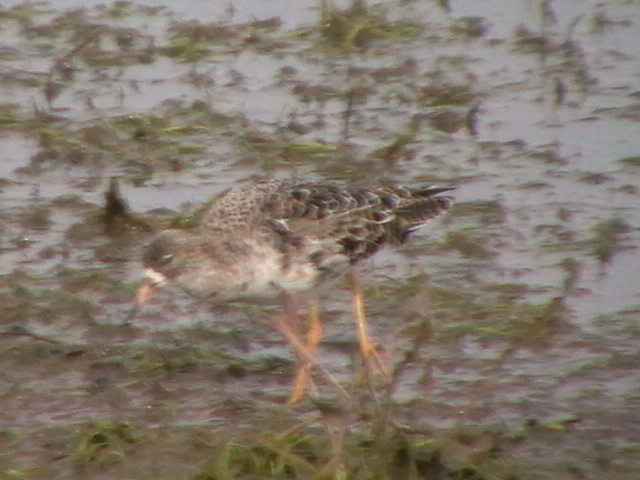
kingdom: Animalia
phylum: Chordata
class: Aves
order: Charadriiformes
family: Scolopacidae
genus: Calidris
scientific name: Calidris pugnax
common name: Ruff
